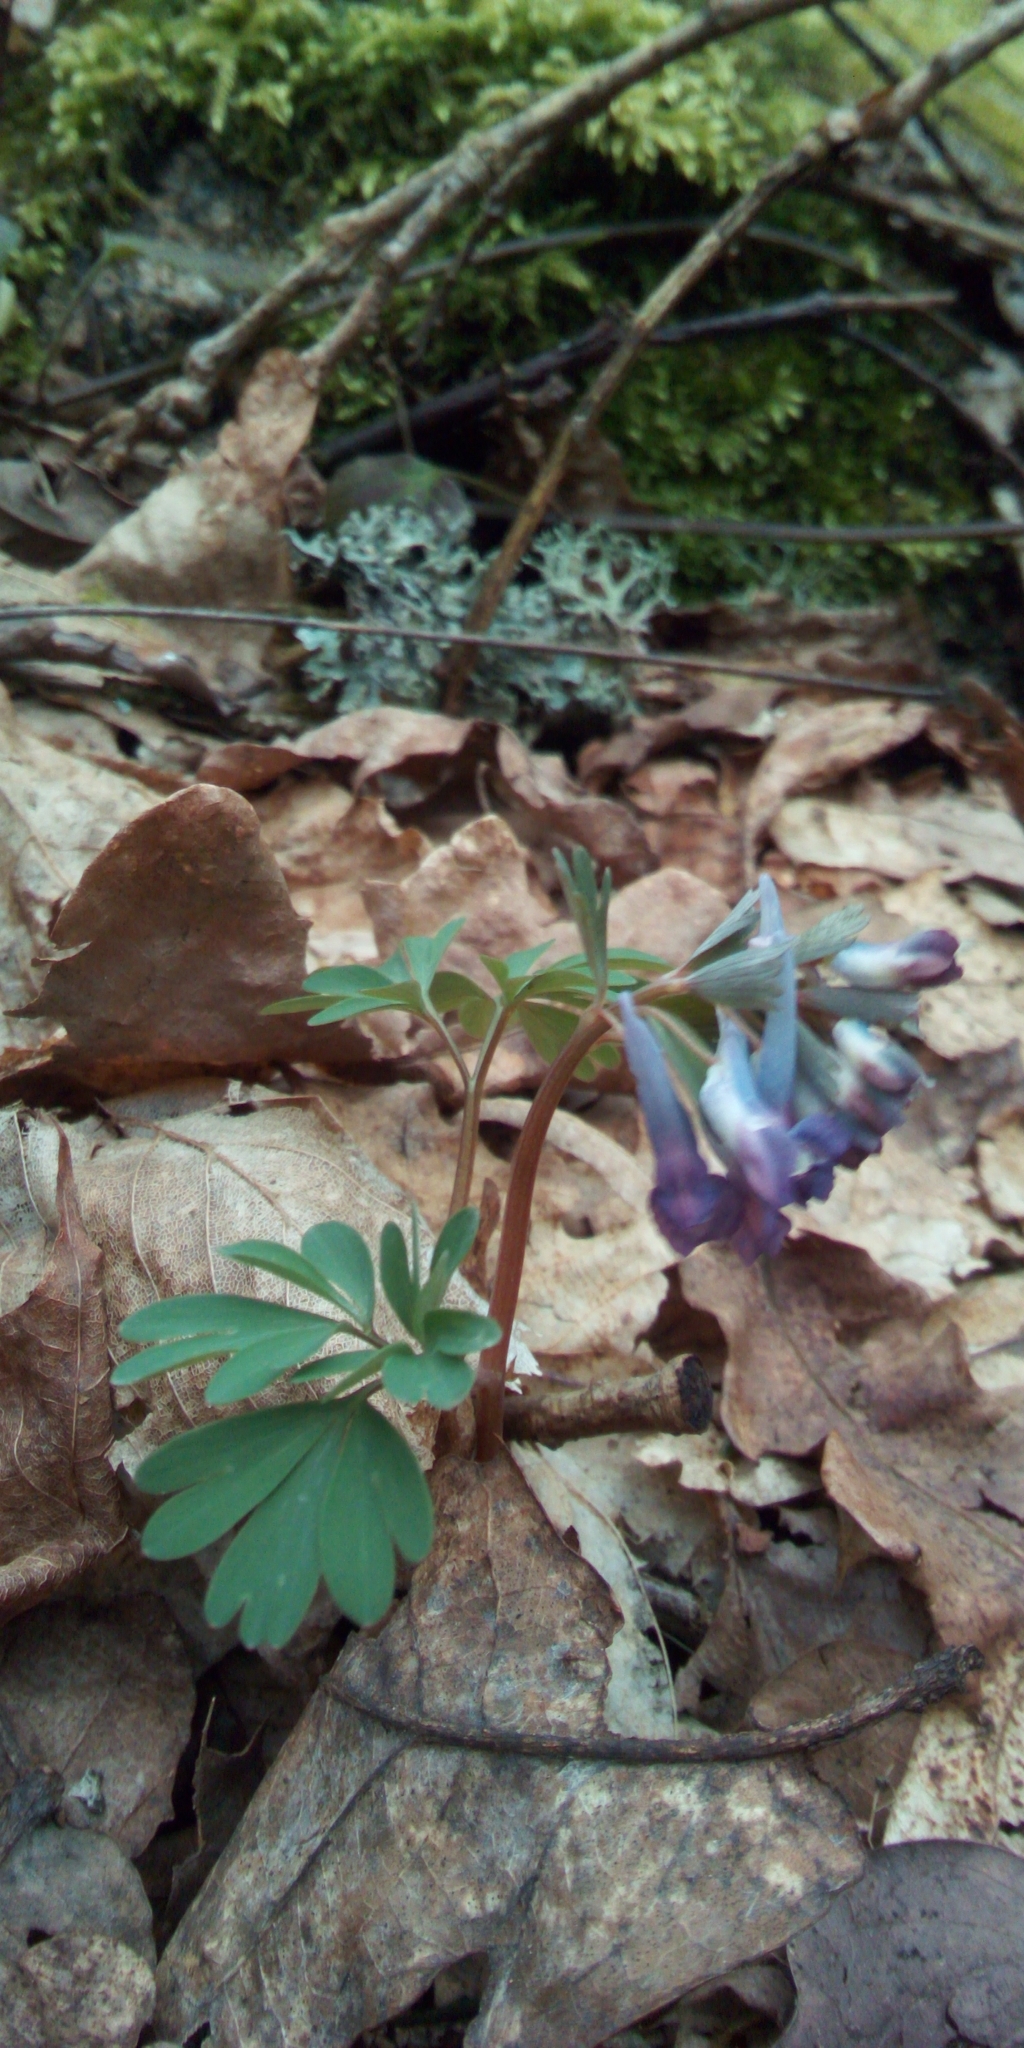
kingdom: Plantae
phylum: Tracheophyta
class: Magnoliopsida
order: Ranunculales
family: Papaveraceae
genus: Corydalis
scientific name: Corydalis solida
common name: Bird-in-a-bush
